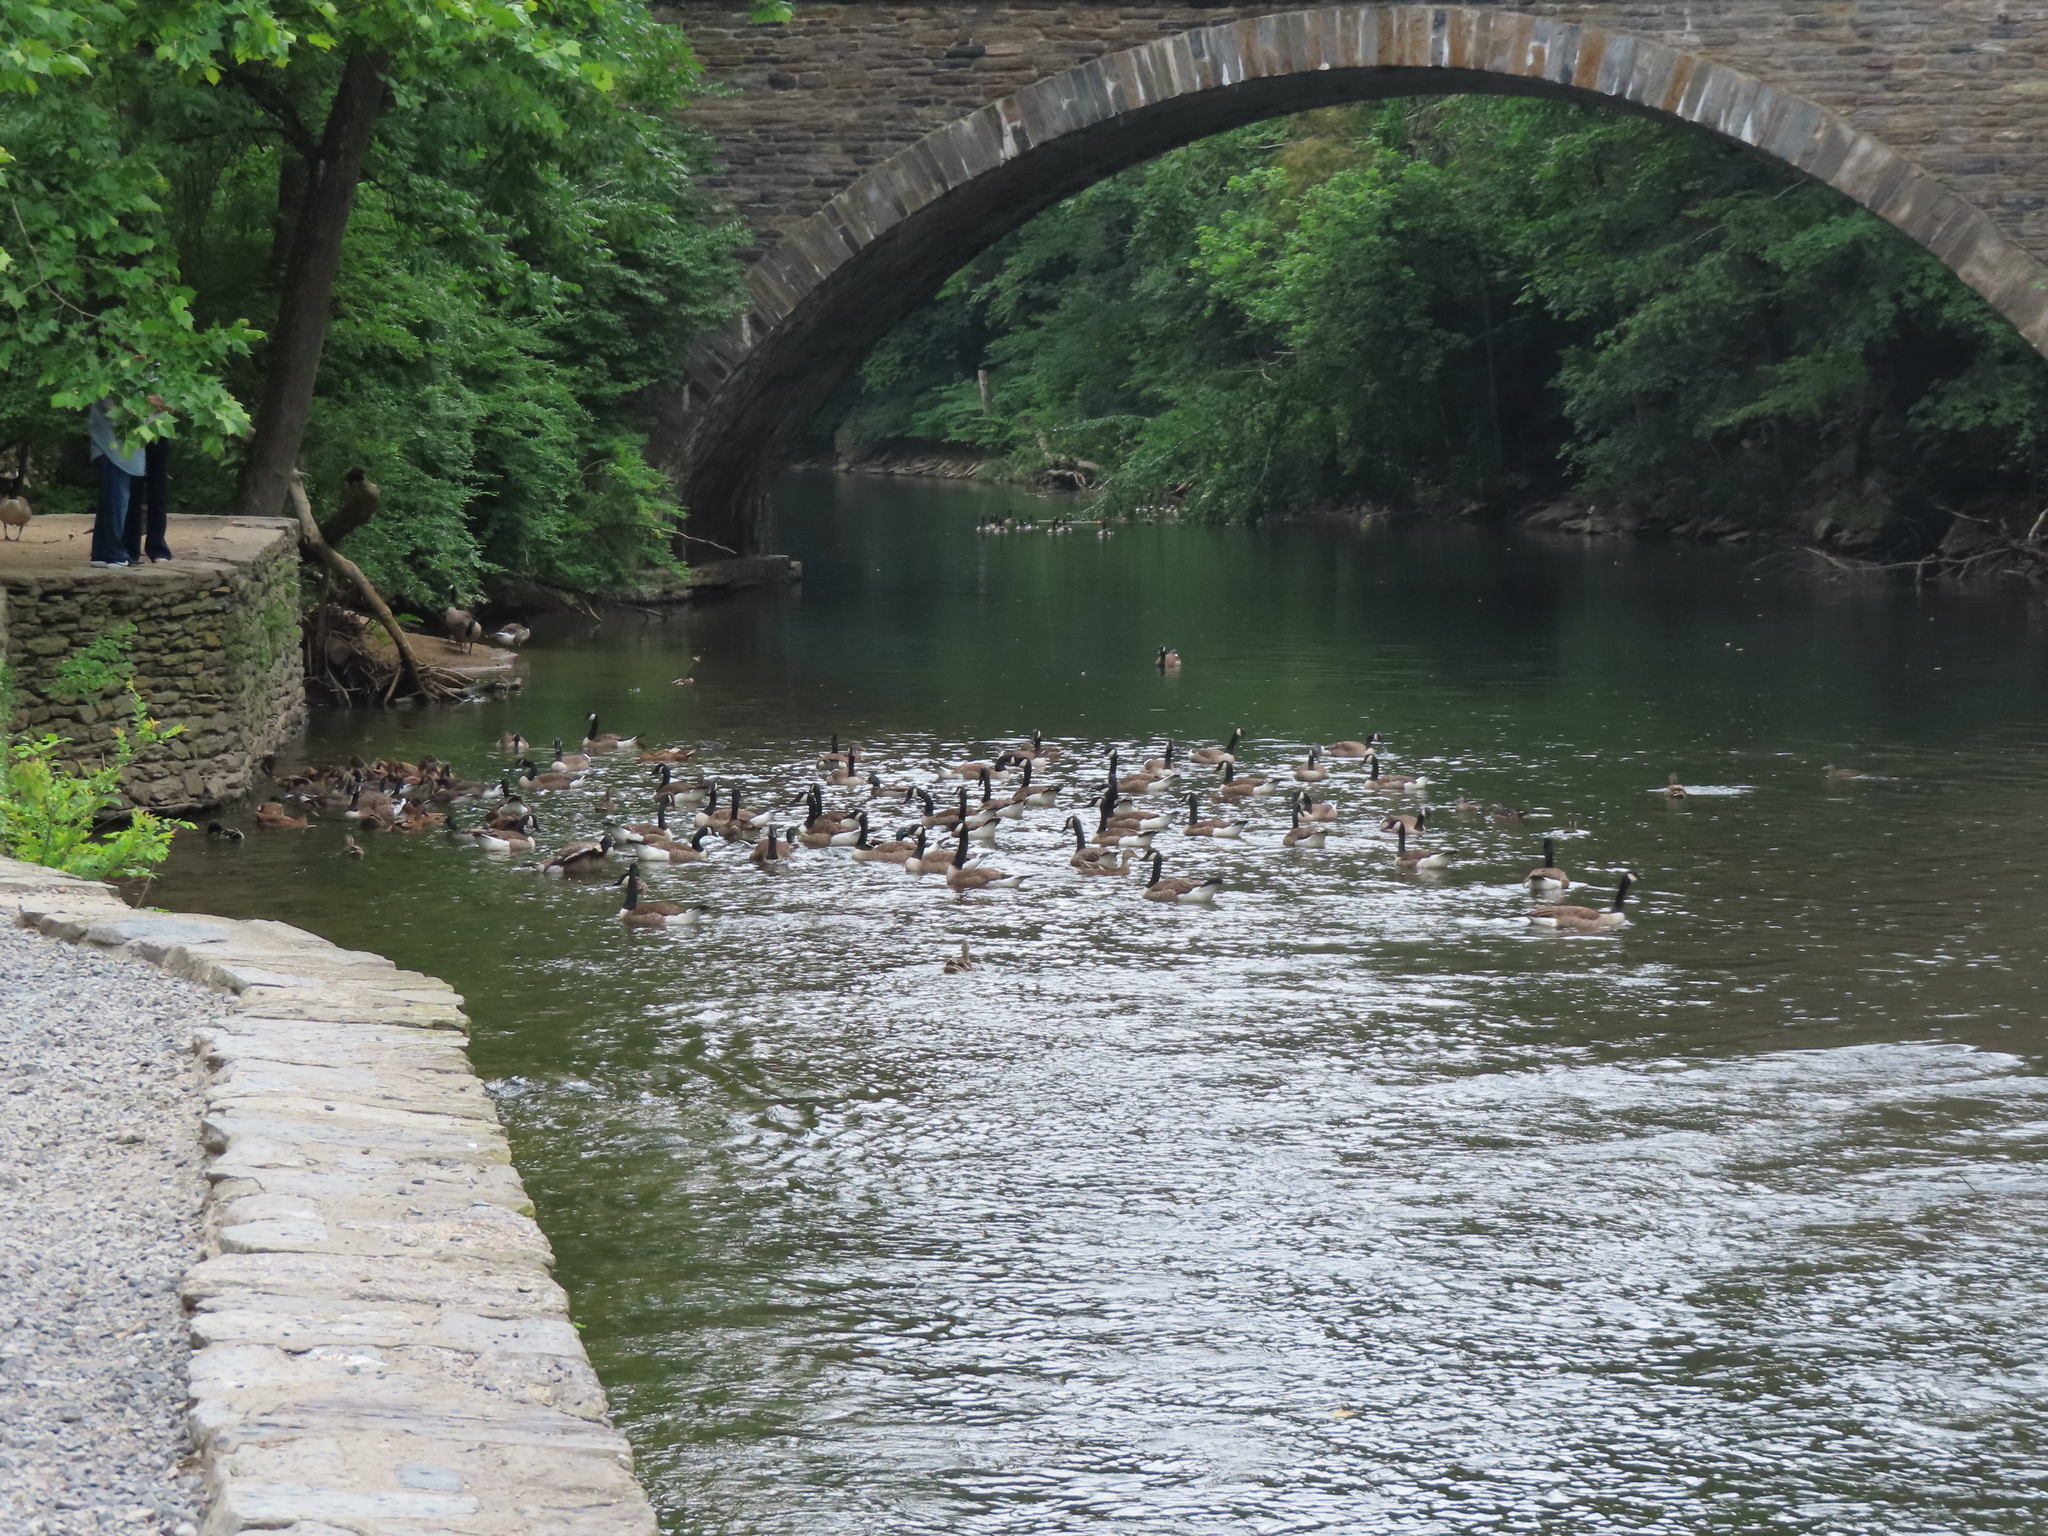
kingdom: Animalia
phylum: Chordata
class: Aves
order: Anseriformes
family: Anatidae
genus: Branta
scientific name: Branta canadensis
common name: Canada goose
